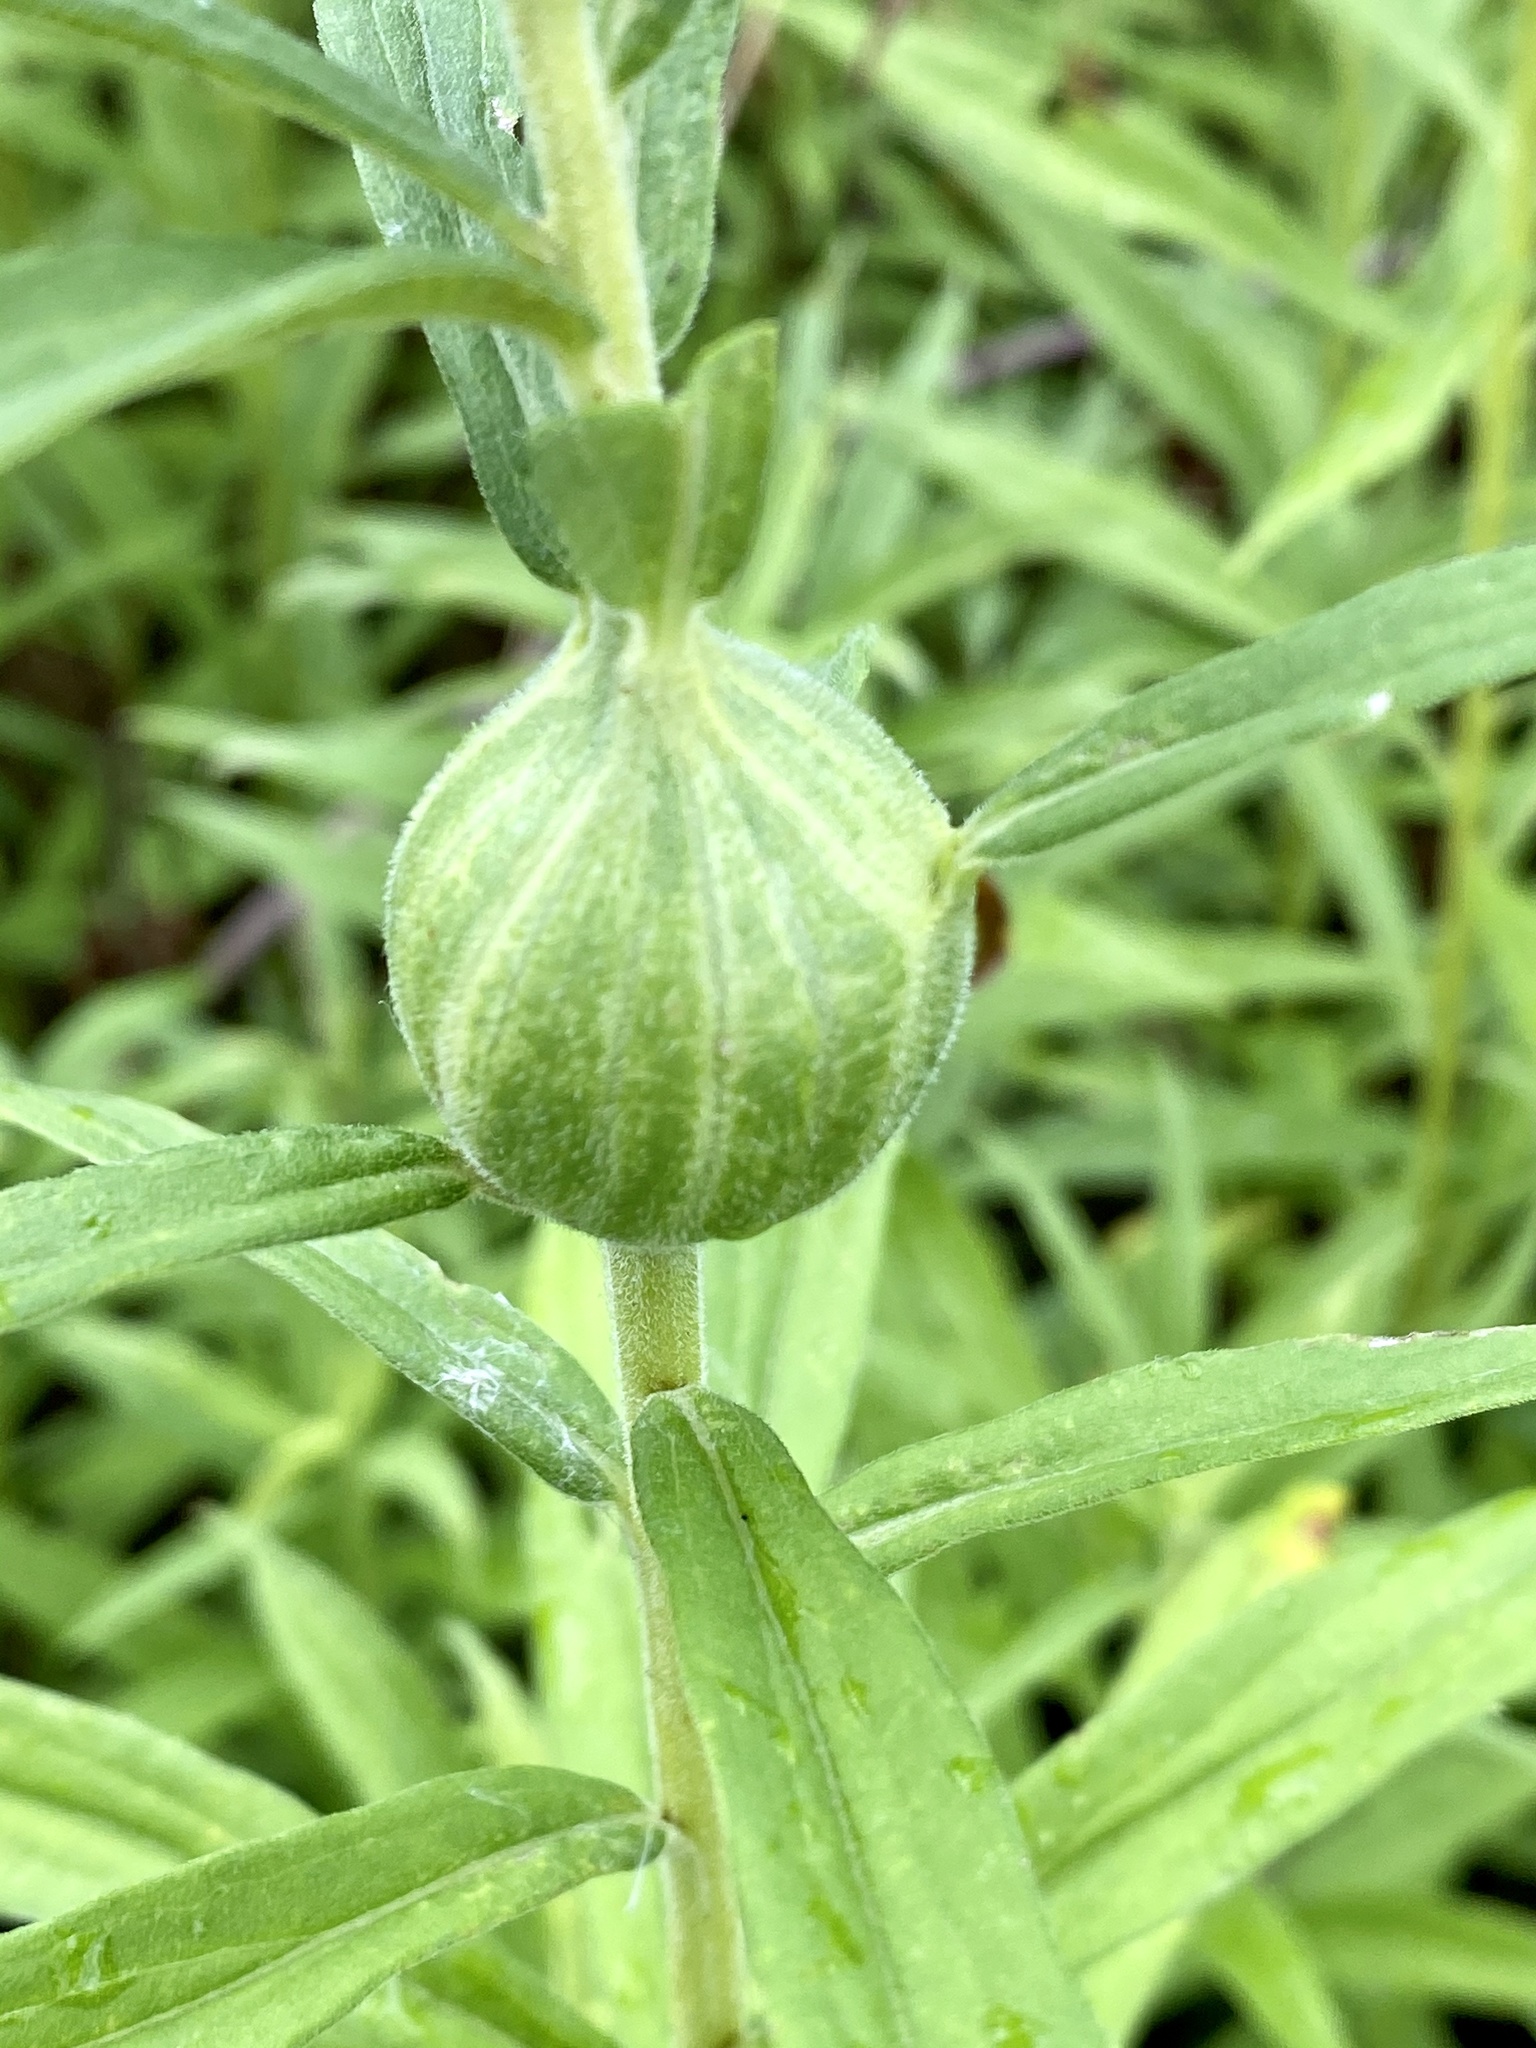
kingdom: Animalia
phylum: Arthropoda
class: Insecta
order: Diptera
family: Tephritidae
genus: Eurosta
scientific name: Eurosta solidaginis
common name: Goldenrod gall fly
